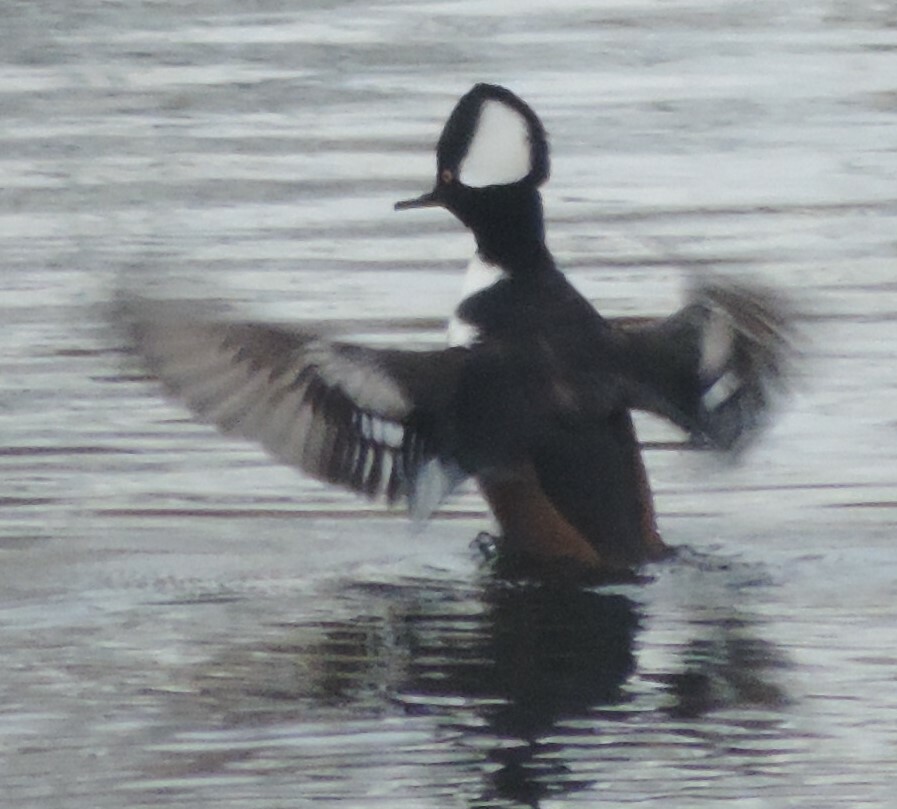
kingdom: Animalia
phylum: Chordata
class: Aves
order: Anseriformes
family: Anatidae
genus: Lophodytes
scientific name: Lophodytes cucullatus
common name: Hooded merganser
